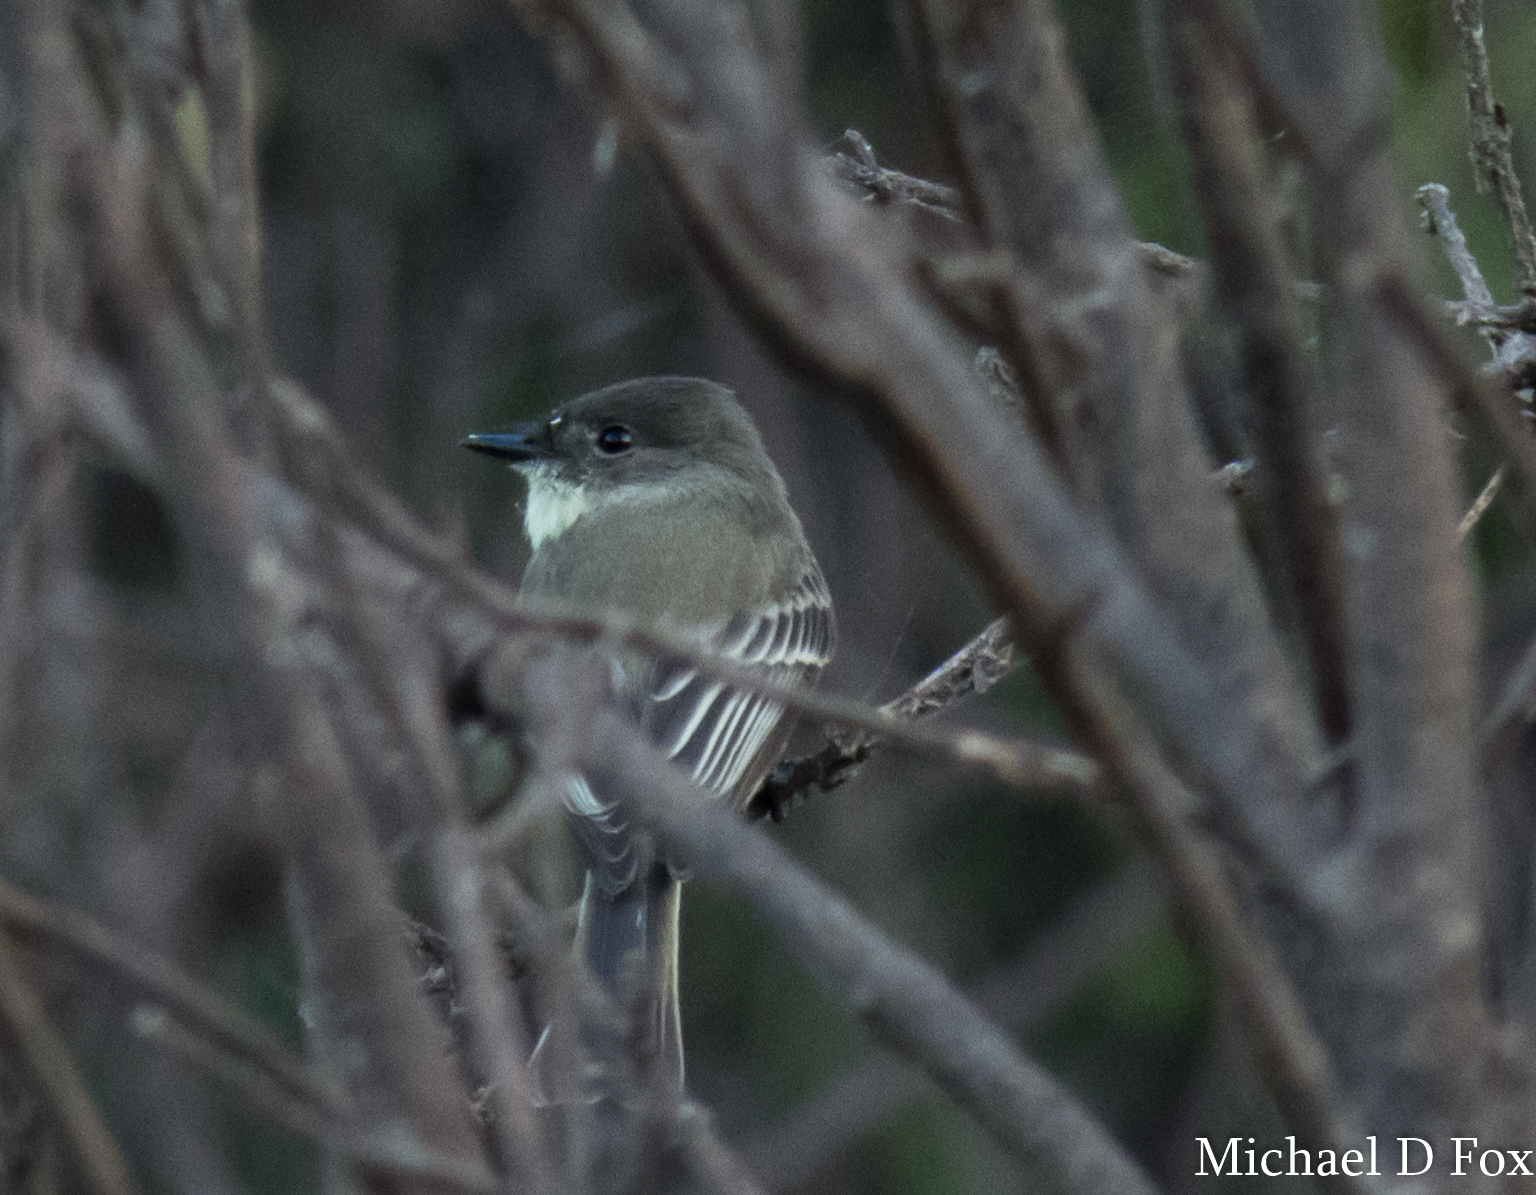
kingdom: Animalia
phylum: Chordata
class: Aves
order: Passeriformes
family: Tyrannidae
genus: Sayornis
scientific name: Sayornis phoebe
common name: Eastern phoebe
